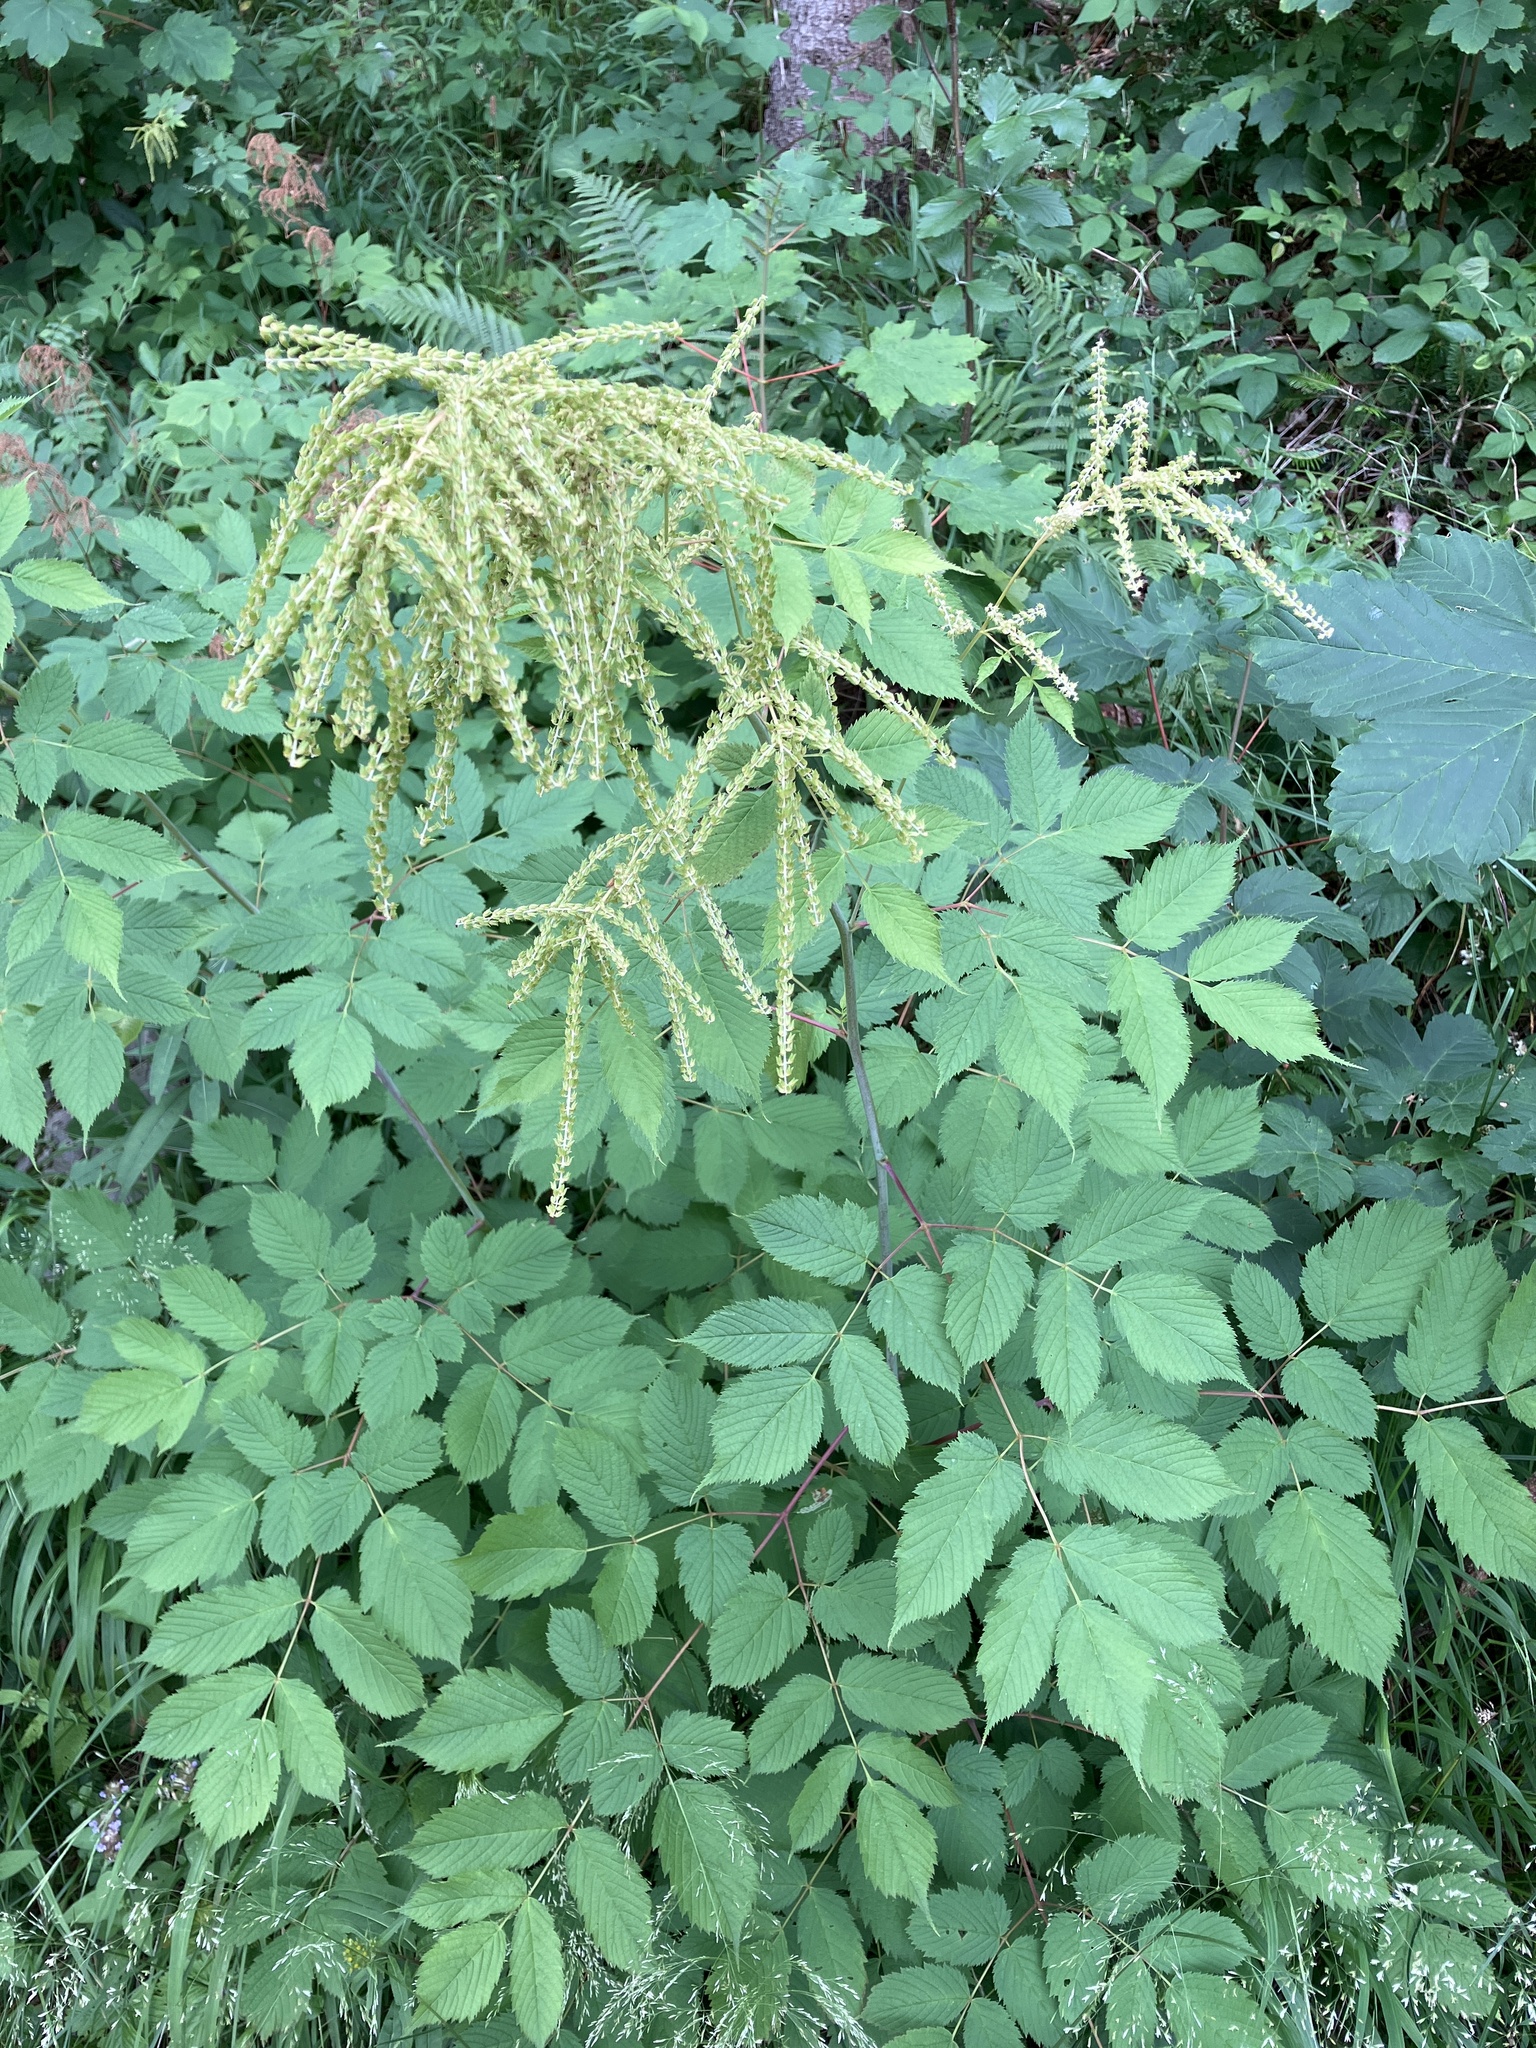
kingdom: Plantae
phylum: Tracheophyta
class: Magnoliopsida
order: Rosales
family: Rosaceae
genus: Aruncus
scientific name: Aruncus dioicus
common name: Buck's-beard
